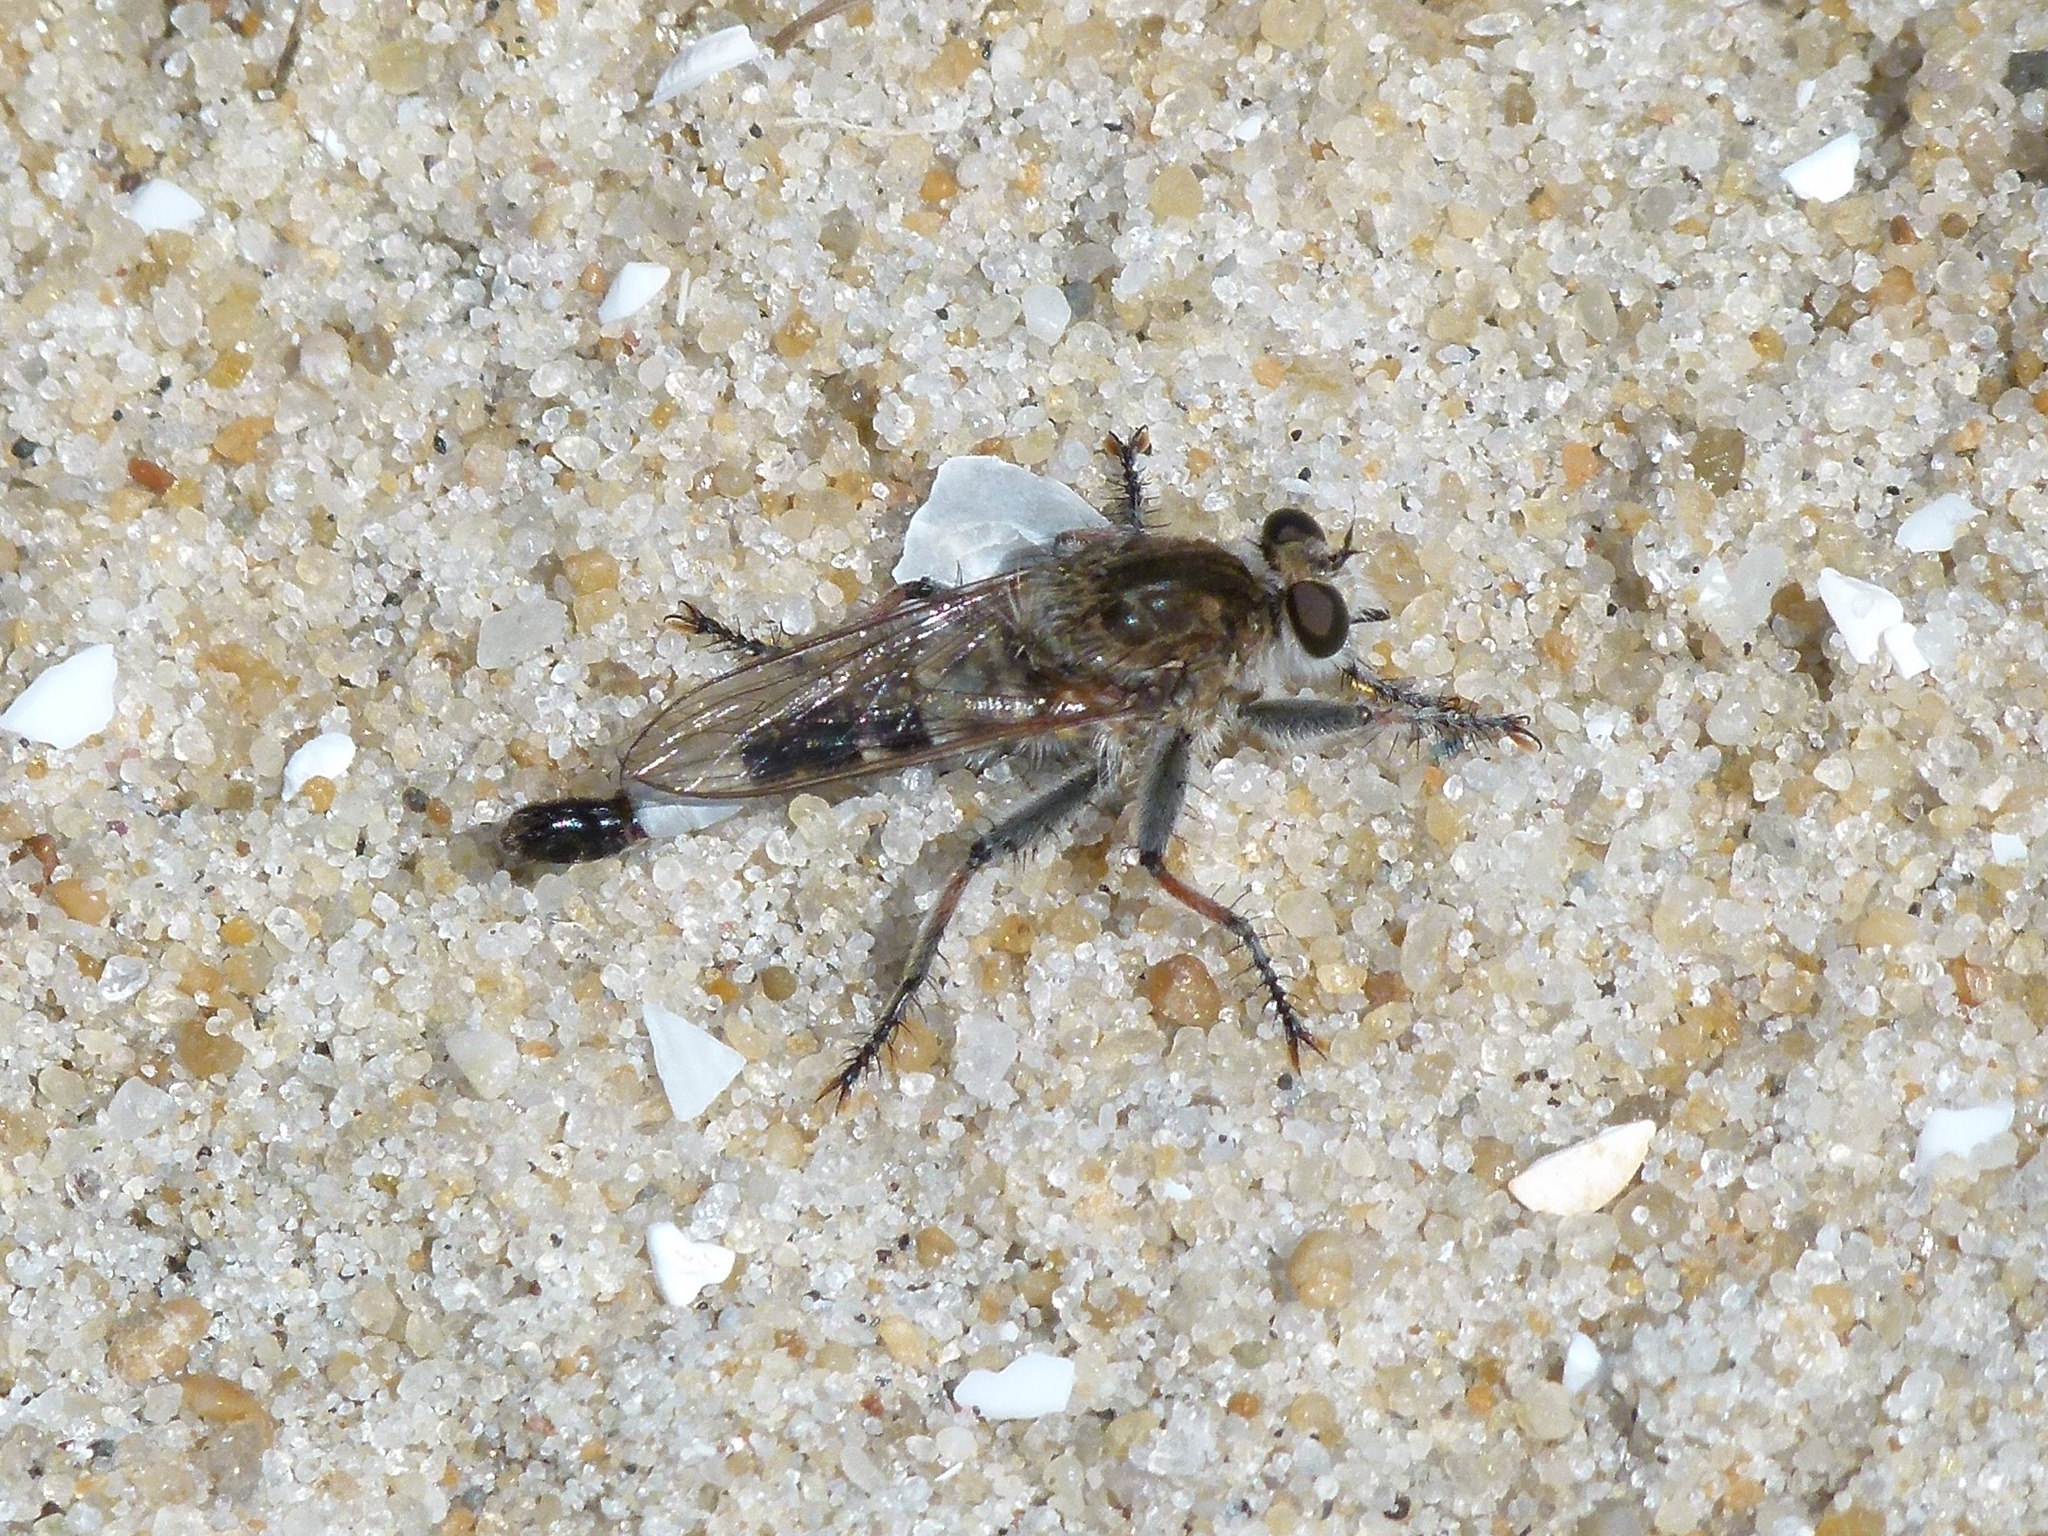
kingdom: Animalia
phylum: Arthropoda
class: Insecta
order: Diptera
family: Asilidae
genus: Efferia
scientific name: Efferia albibarbis
